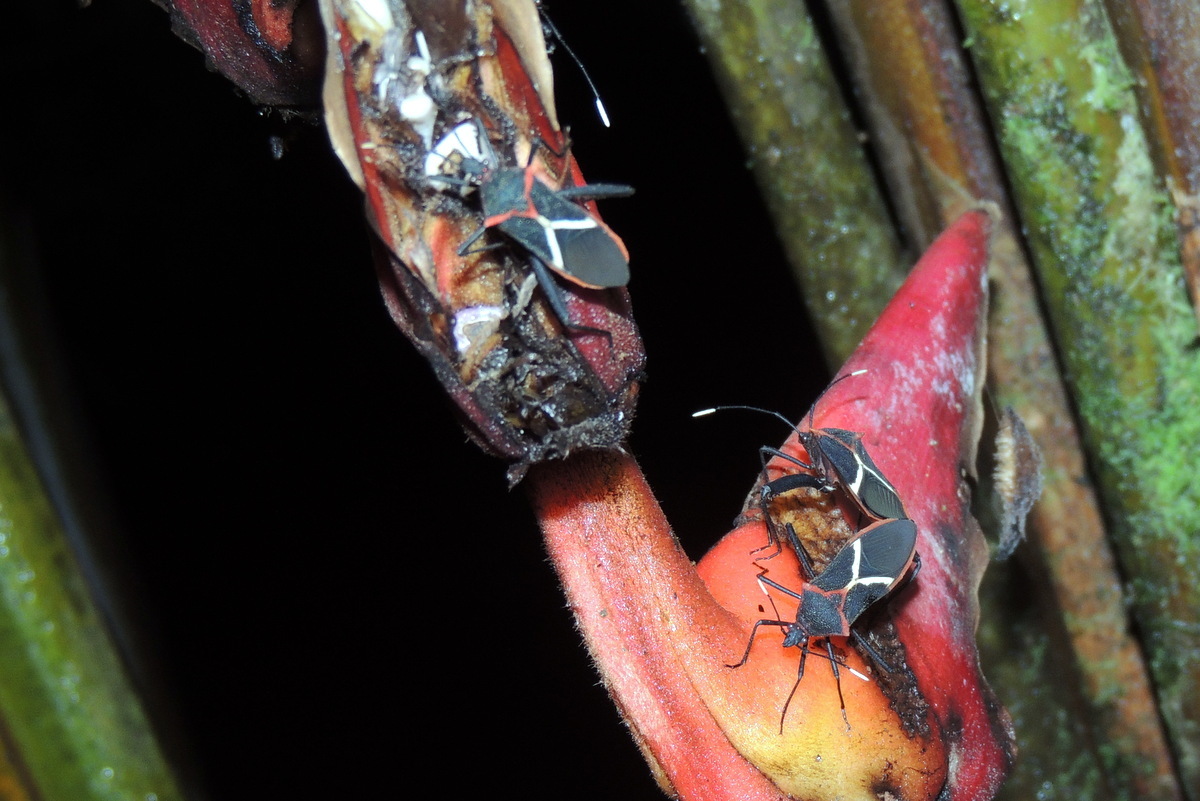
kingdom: Animalia
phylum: Arthropoda
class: Insecta
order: Hemiptera
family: Coreidae
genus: Leptoscelis
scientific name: Leptoscelis tricolor
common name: Heliconia bug
